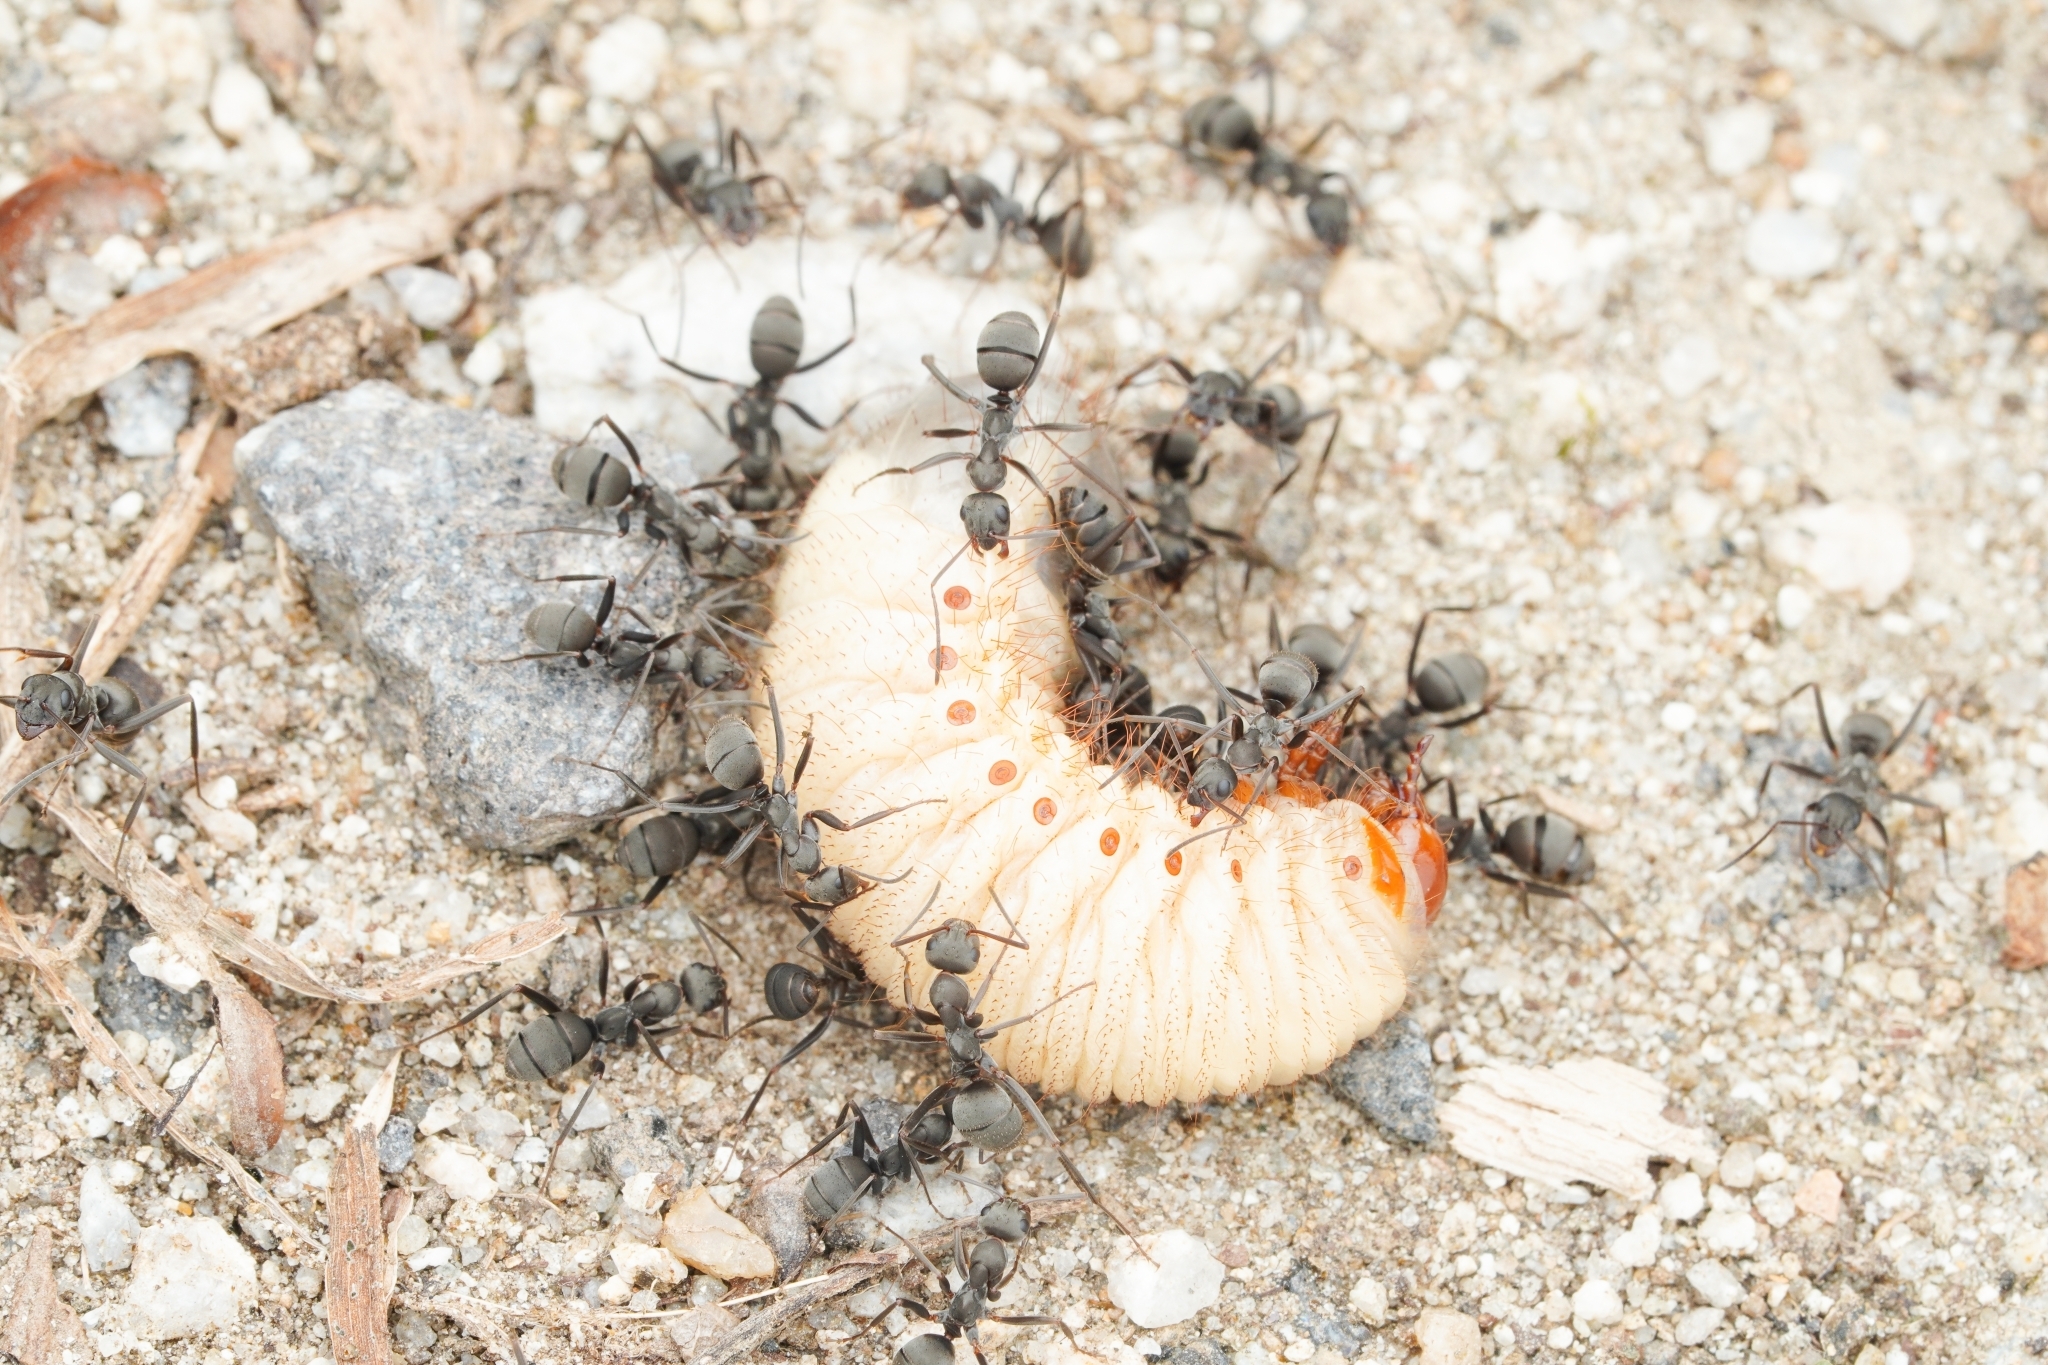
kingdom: Animalia
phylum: Arthropoda
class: Insecta
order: Hymenoptera
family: Formicidae
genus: Formica
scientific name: Formica japonica
